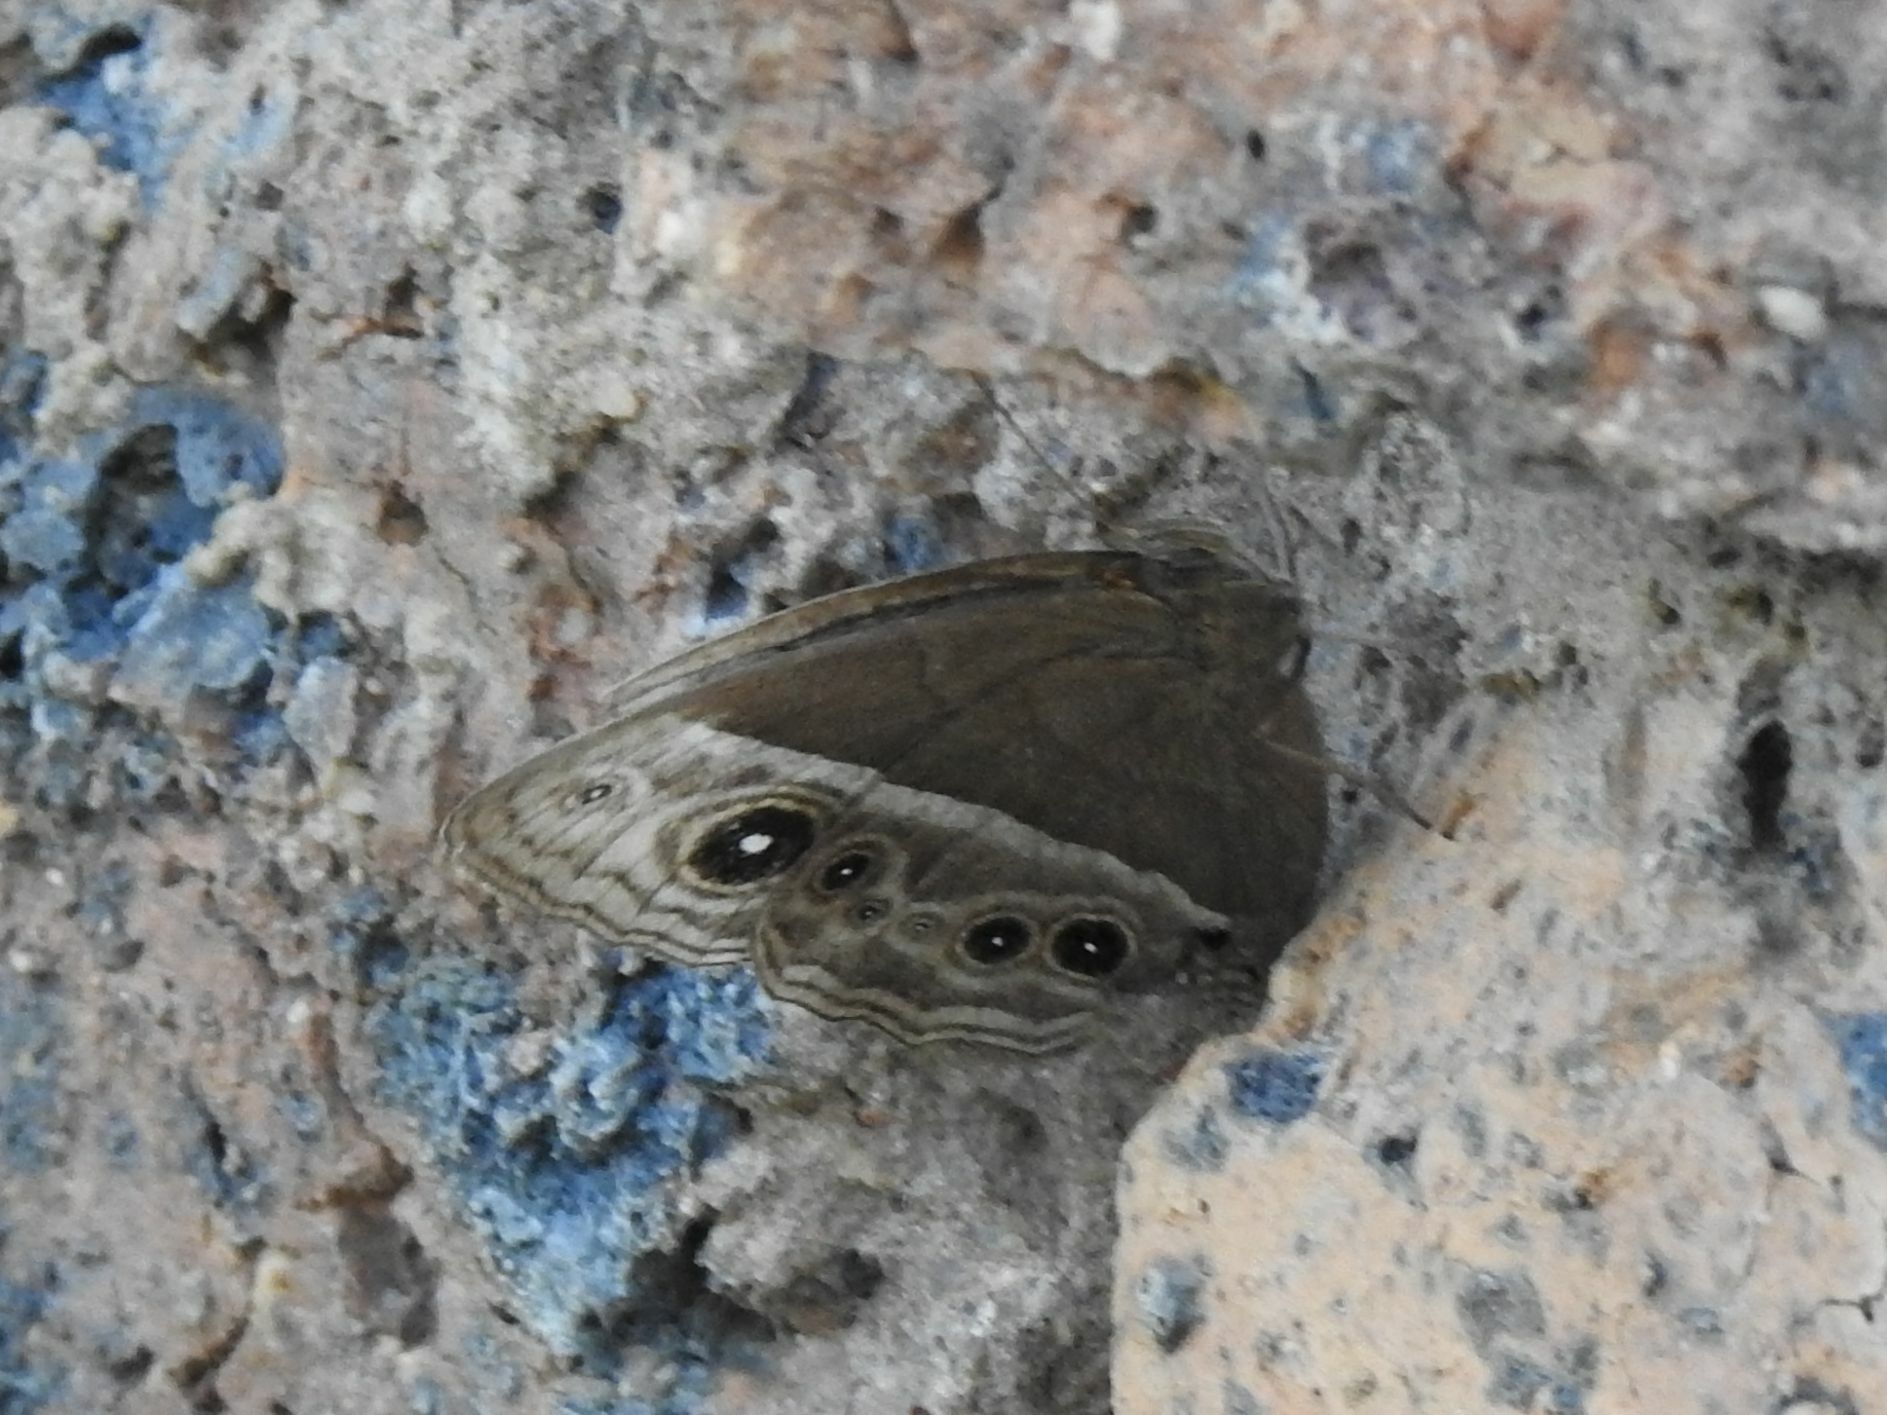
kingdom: Animalia
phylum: Arthropoda
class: Insecta
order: Lepidoptera
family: Nymphalidae
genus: Mycalesis
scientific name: Mycalesis rhacotis
